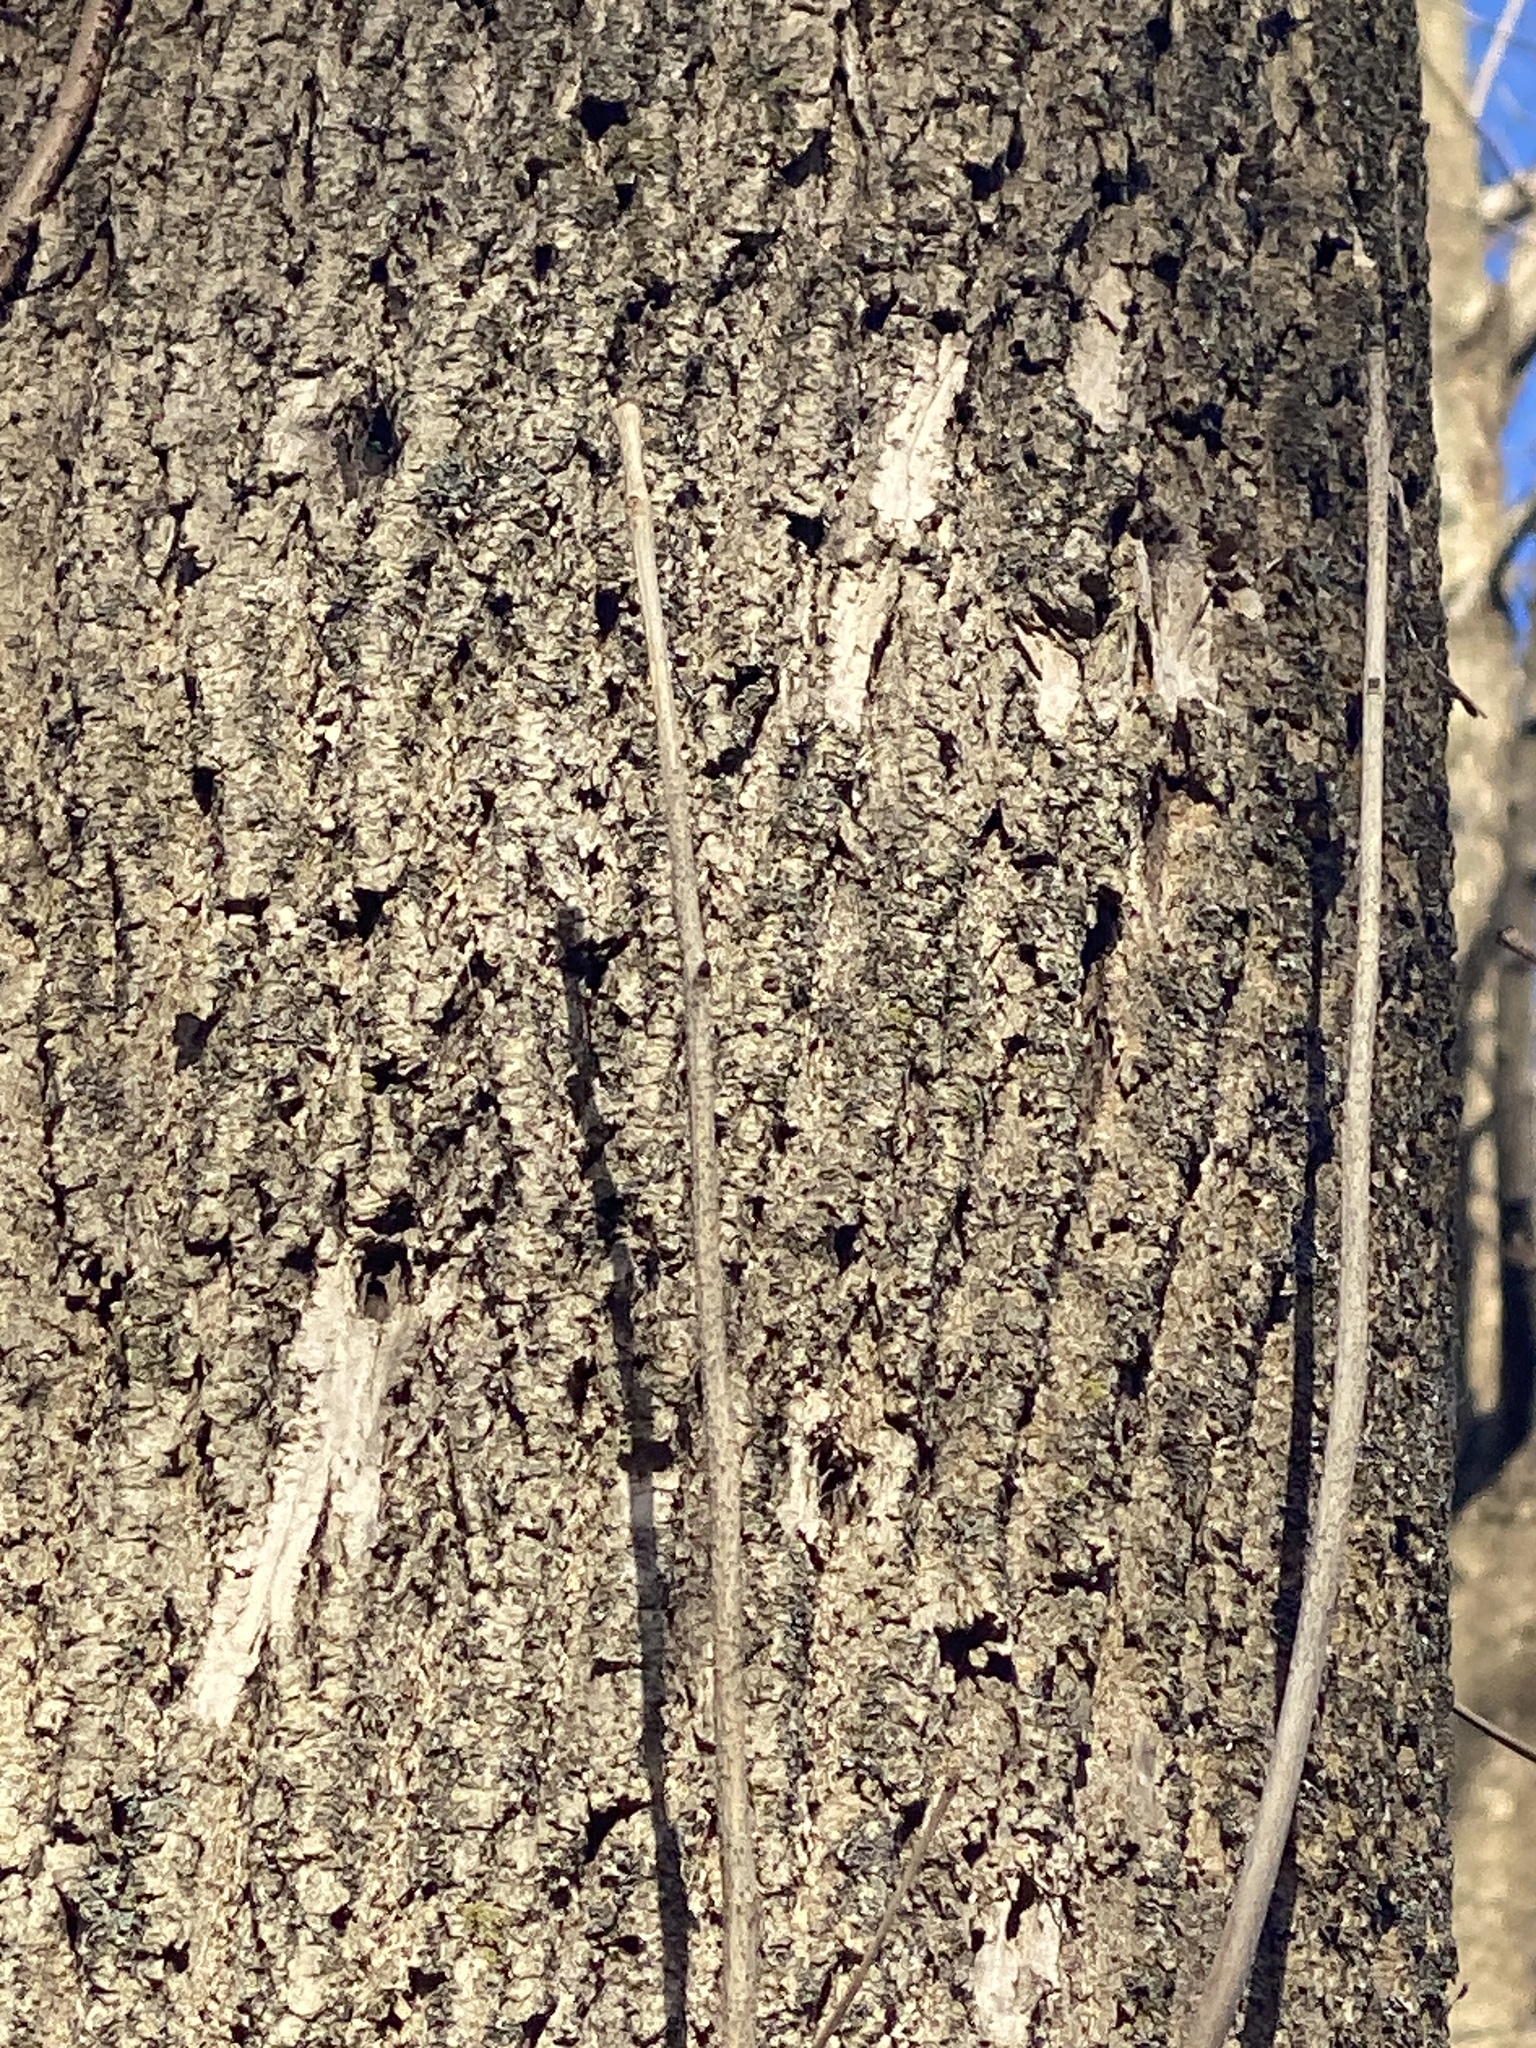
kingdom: Animalia
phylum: Arthropoda
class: Insecta
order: Coleoptera
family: Buprestidae
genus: Agrilus
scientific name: Agrilus planipennis
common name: Emerald ash borer
